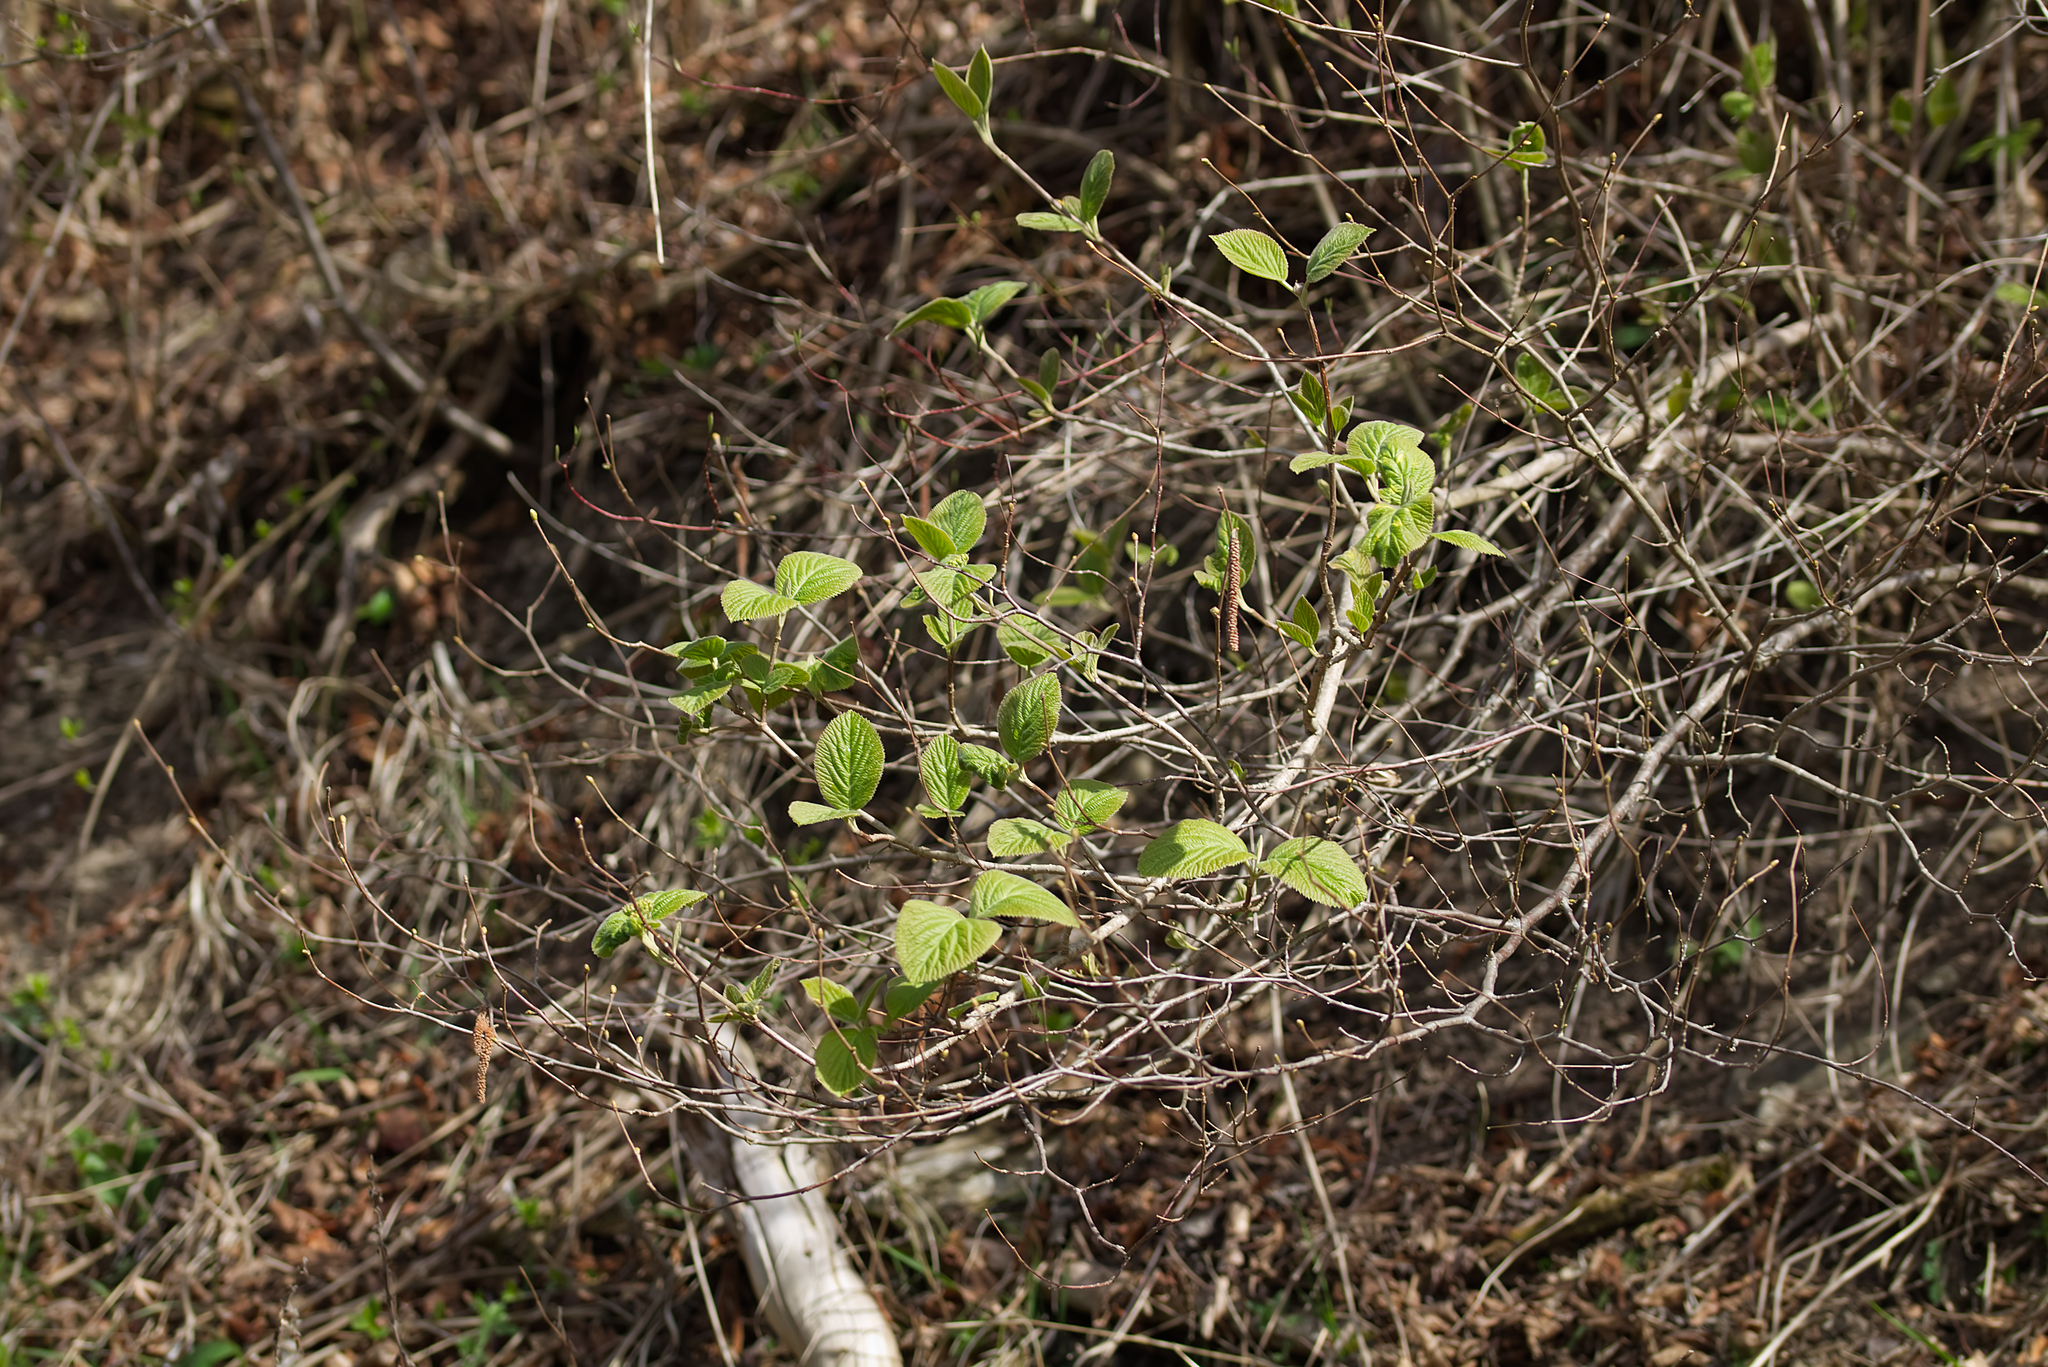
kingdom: Plantae
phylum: Tracheophyta
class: Magnoliopsida
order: Dipsacales
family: Viburnaceae
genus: Viburnum
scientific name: Viburnum lantana
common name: Wayfaring tree
